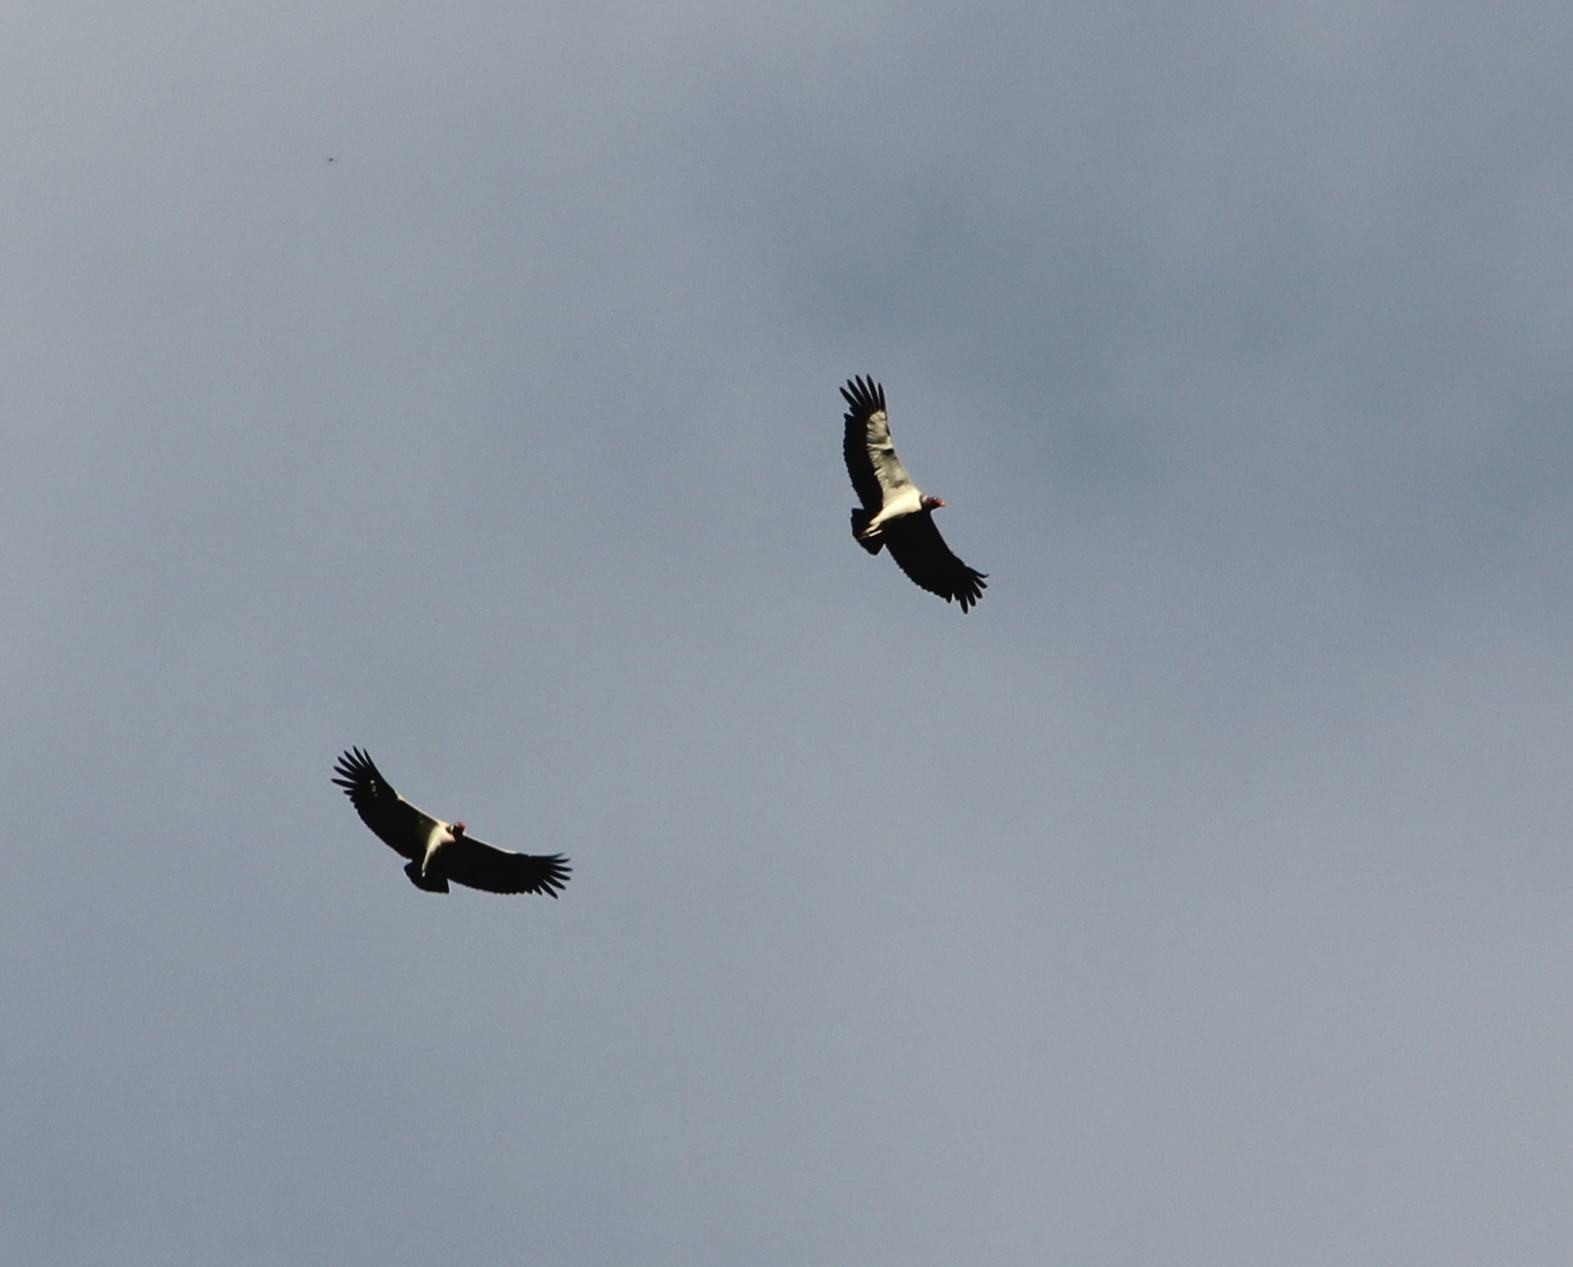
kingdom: Animalia
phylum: Chordata
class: Aves
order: Accipitriformes
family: Cathartidae
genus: Sarcoramphus
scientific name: Sarcoramphus papa
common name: King vulture
